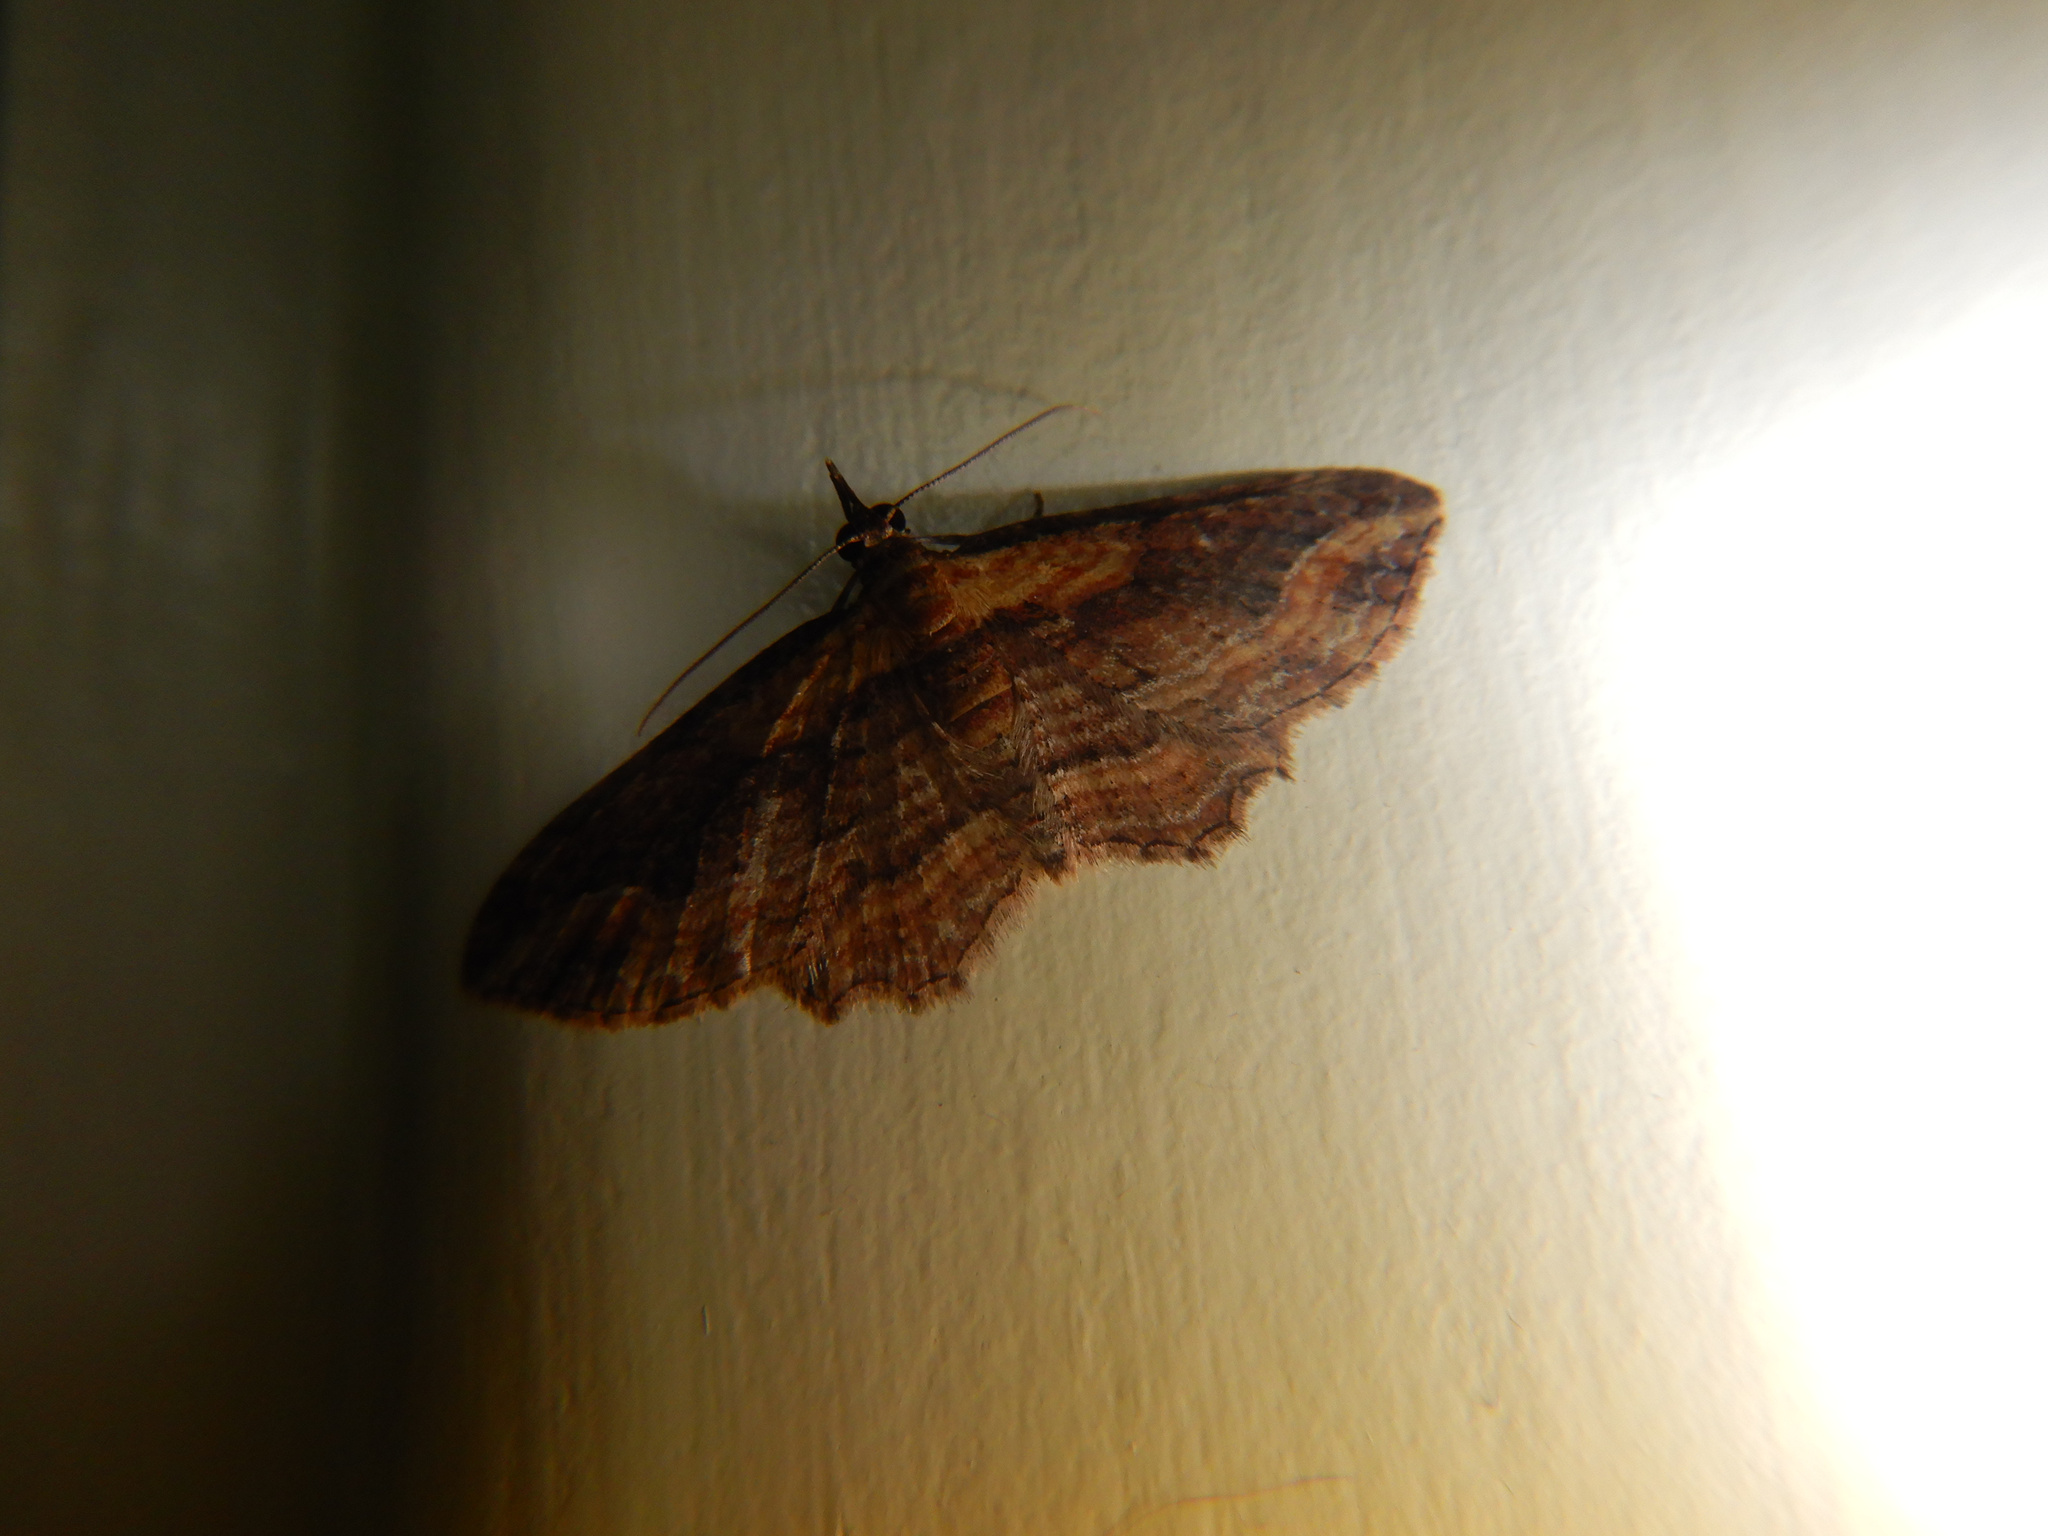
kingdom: Animalia
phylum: Arthropoda
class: Insecta
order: Lepidoptera
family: Geometridae
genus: Chloroclystis
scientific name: Chloroclystis filata
